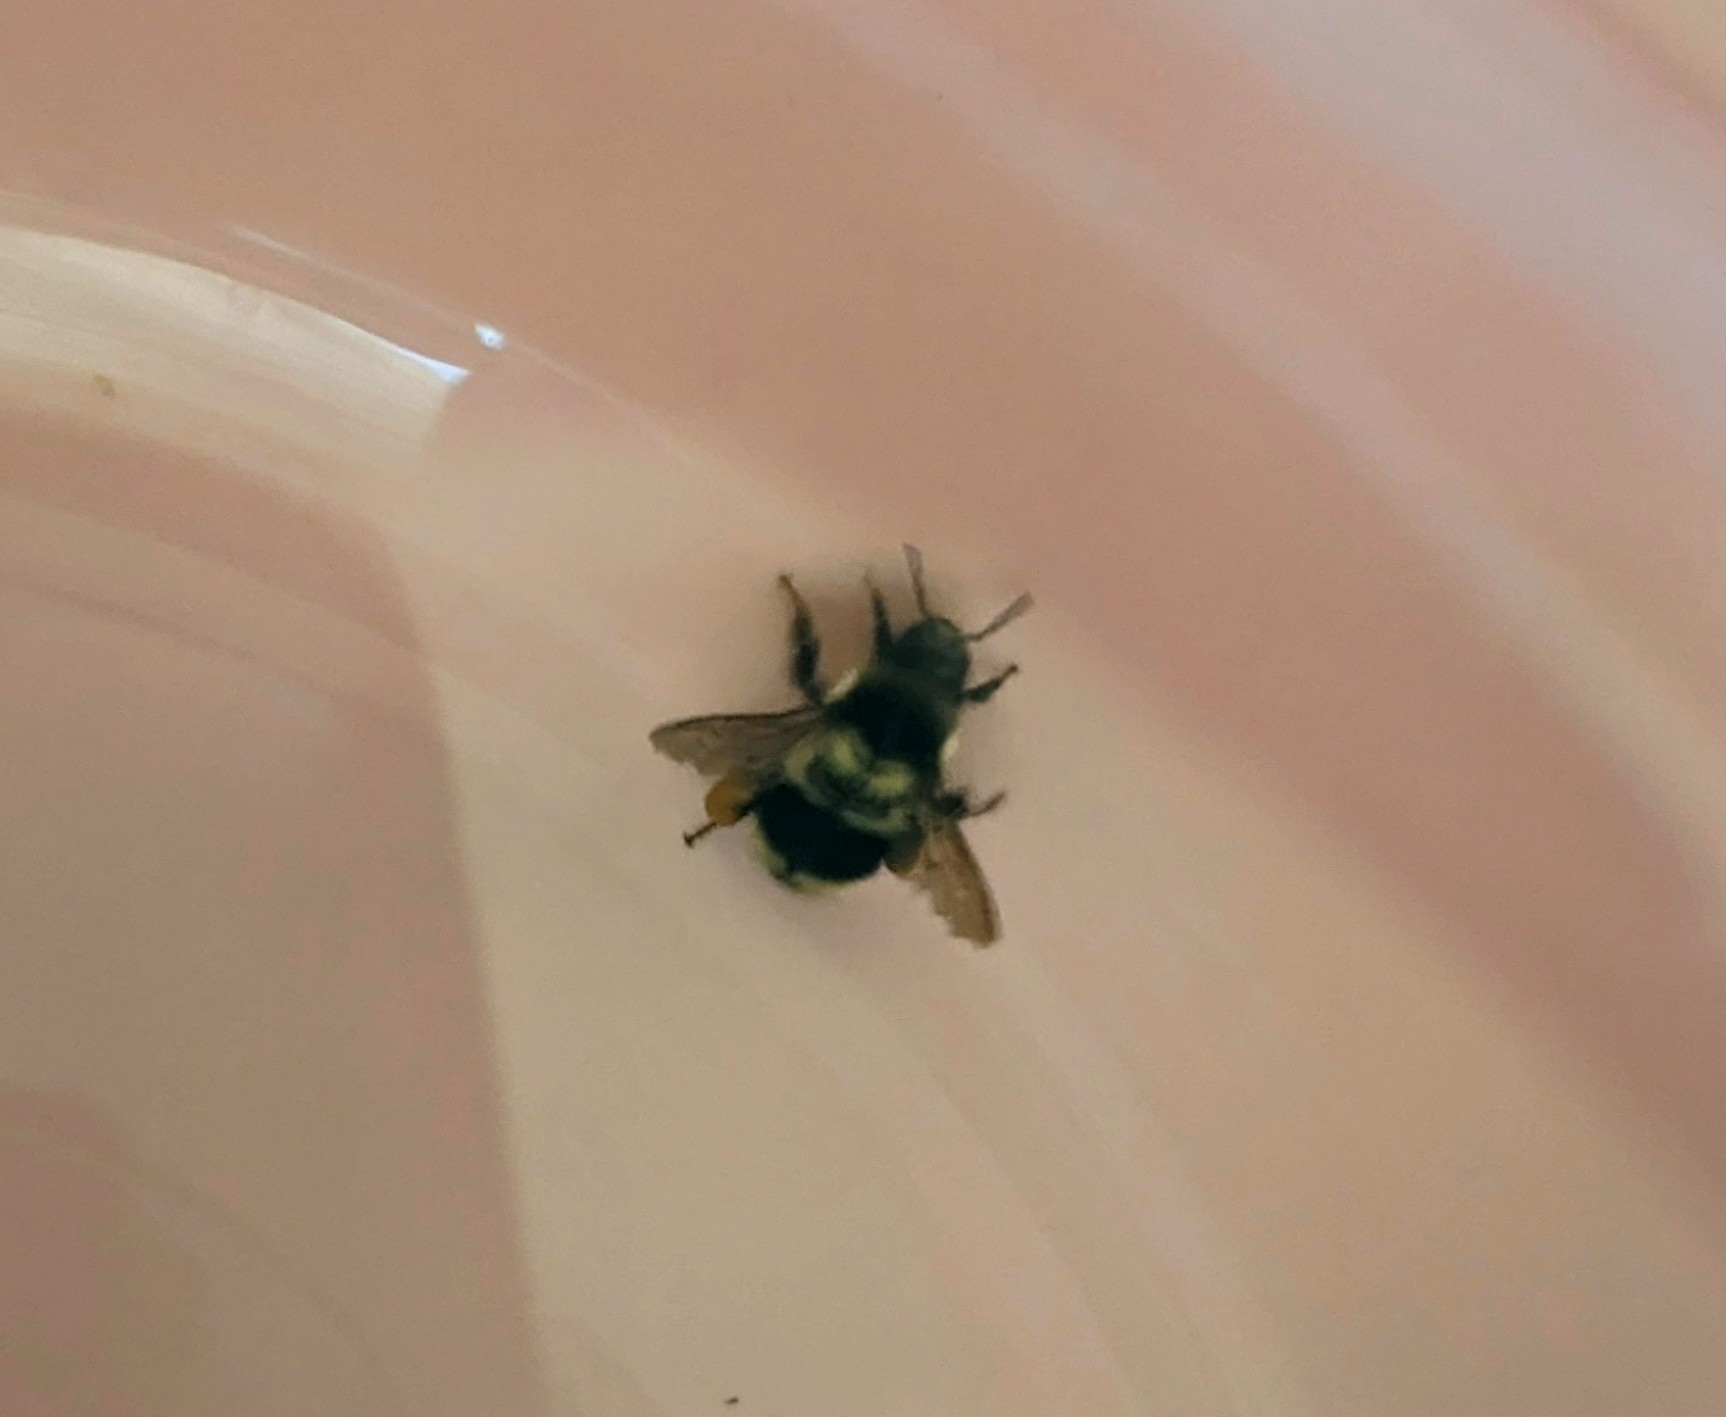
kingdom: Animalia
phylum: Arthropoda
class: Insecta
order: Hymenoptera
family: Apidae
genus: Bombus
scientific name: Bombus melanopygus
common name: Black tail bumble bee
